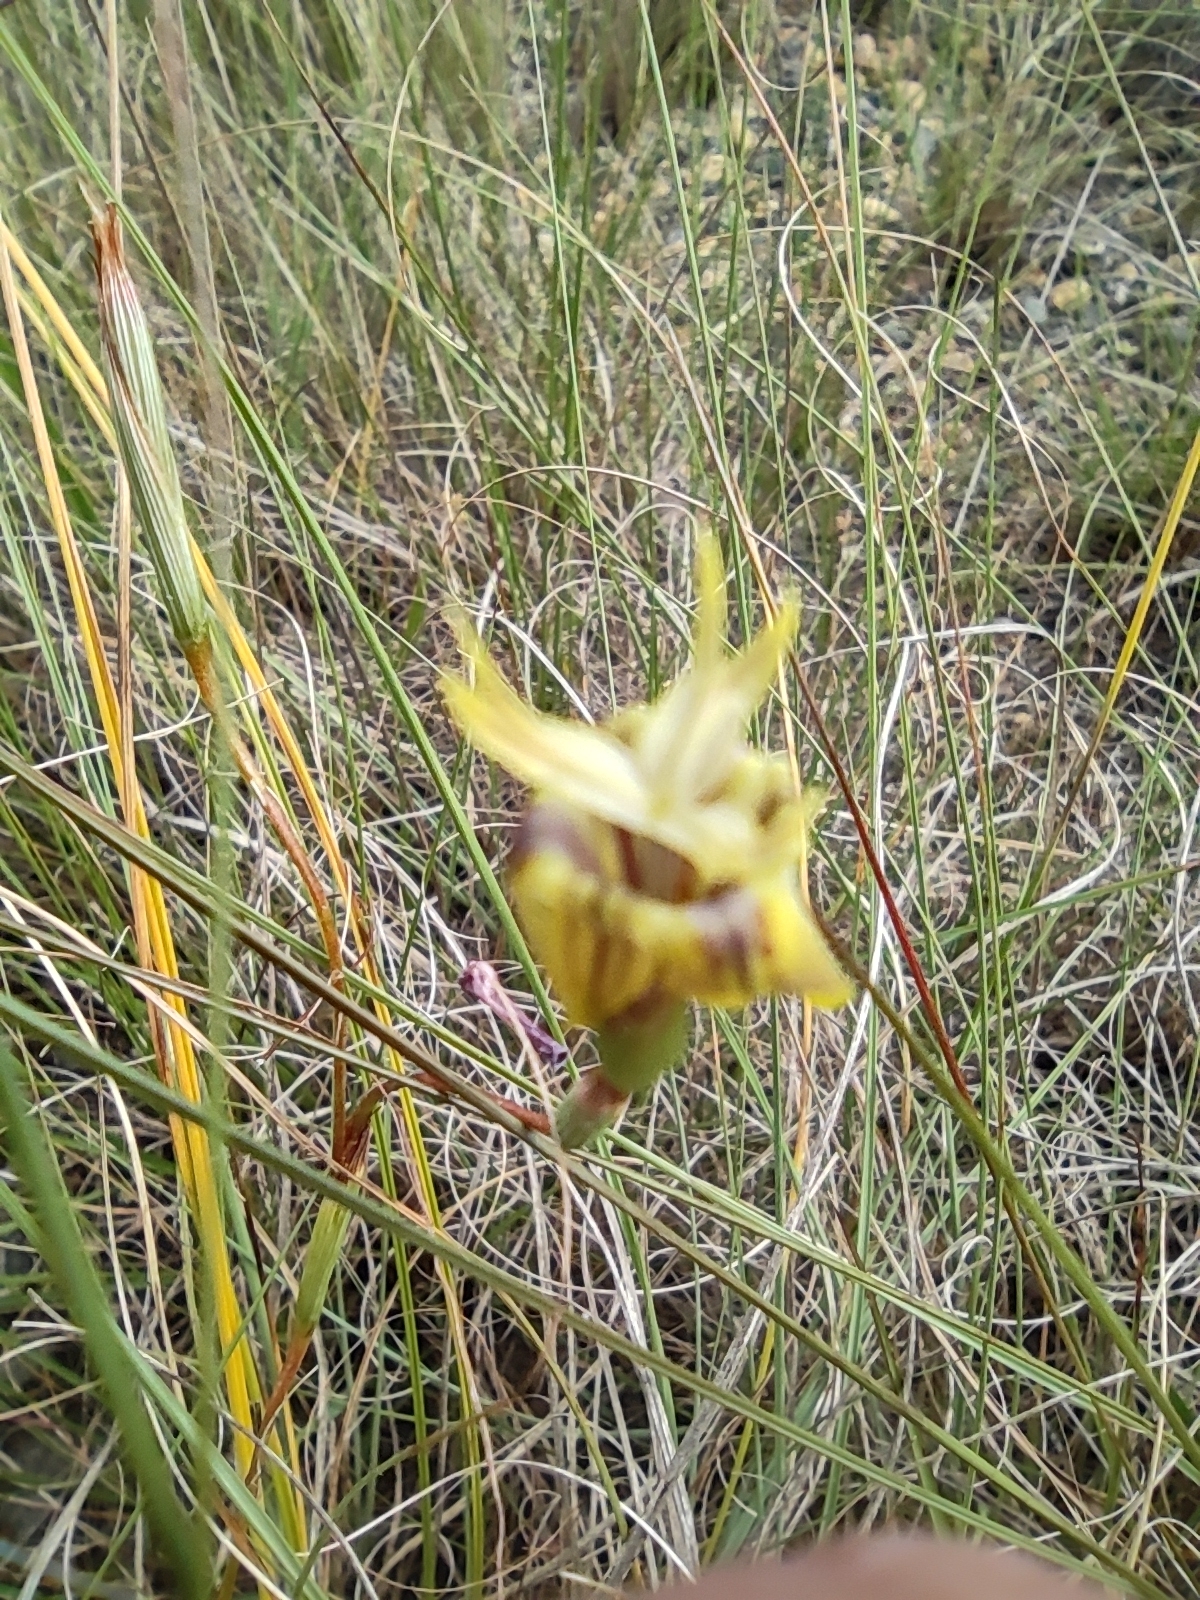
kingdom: Plantae
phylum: Tracheophyta
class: Liliopsida
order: Asparagales
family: Iridaceae
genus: Moraea
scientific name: Moraea inconspicua
